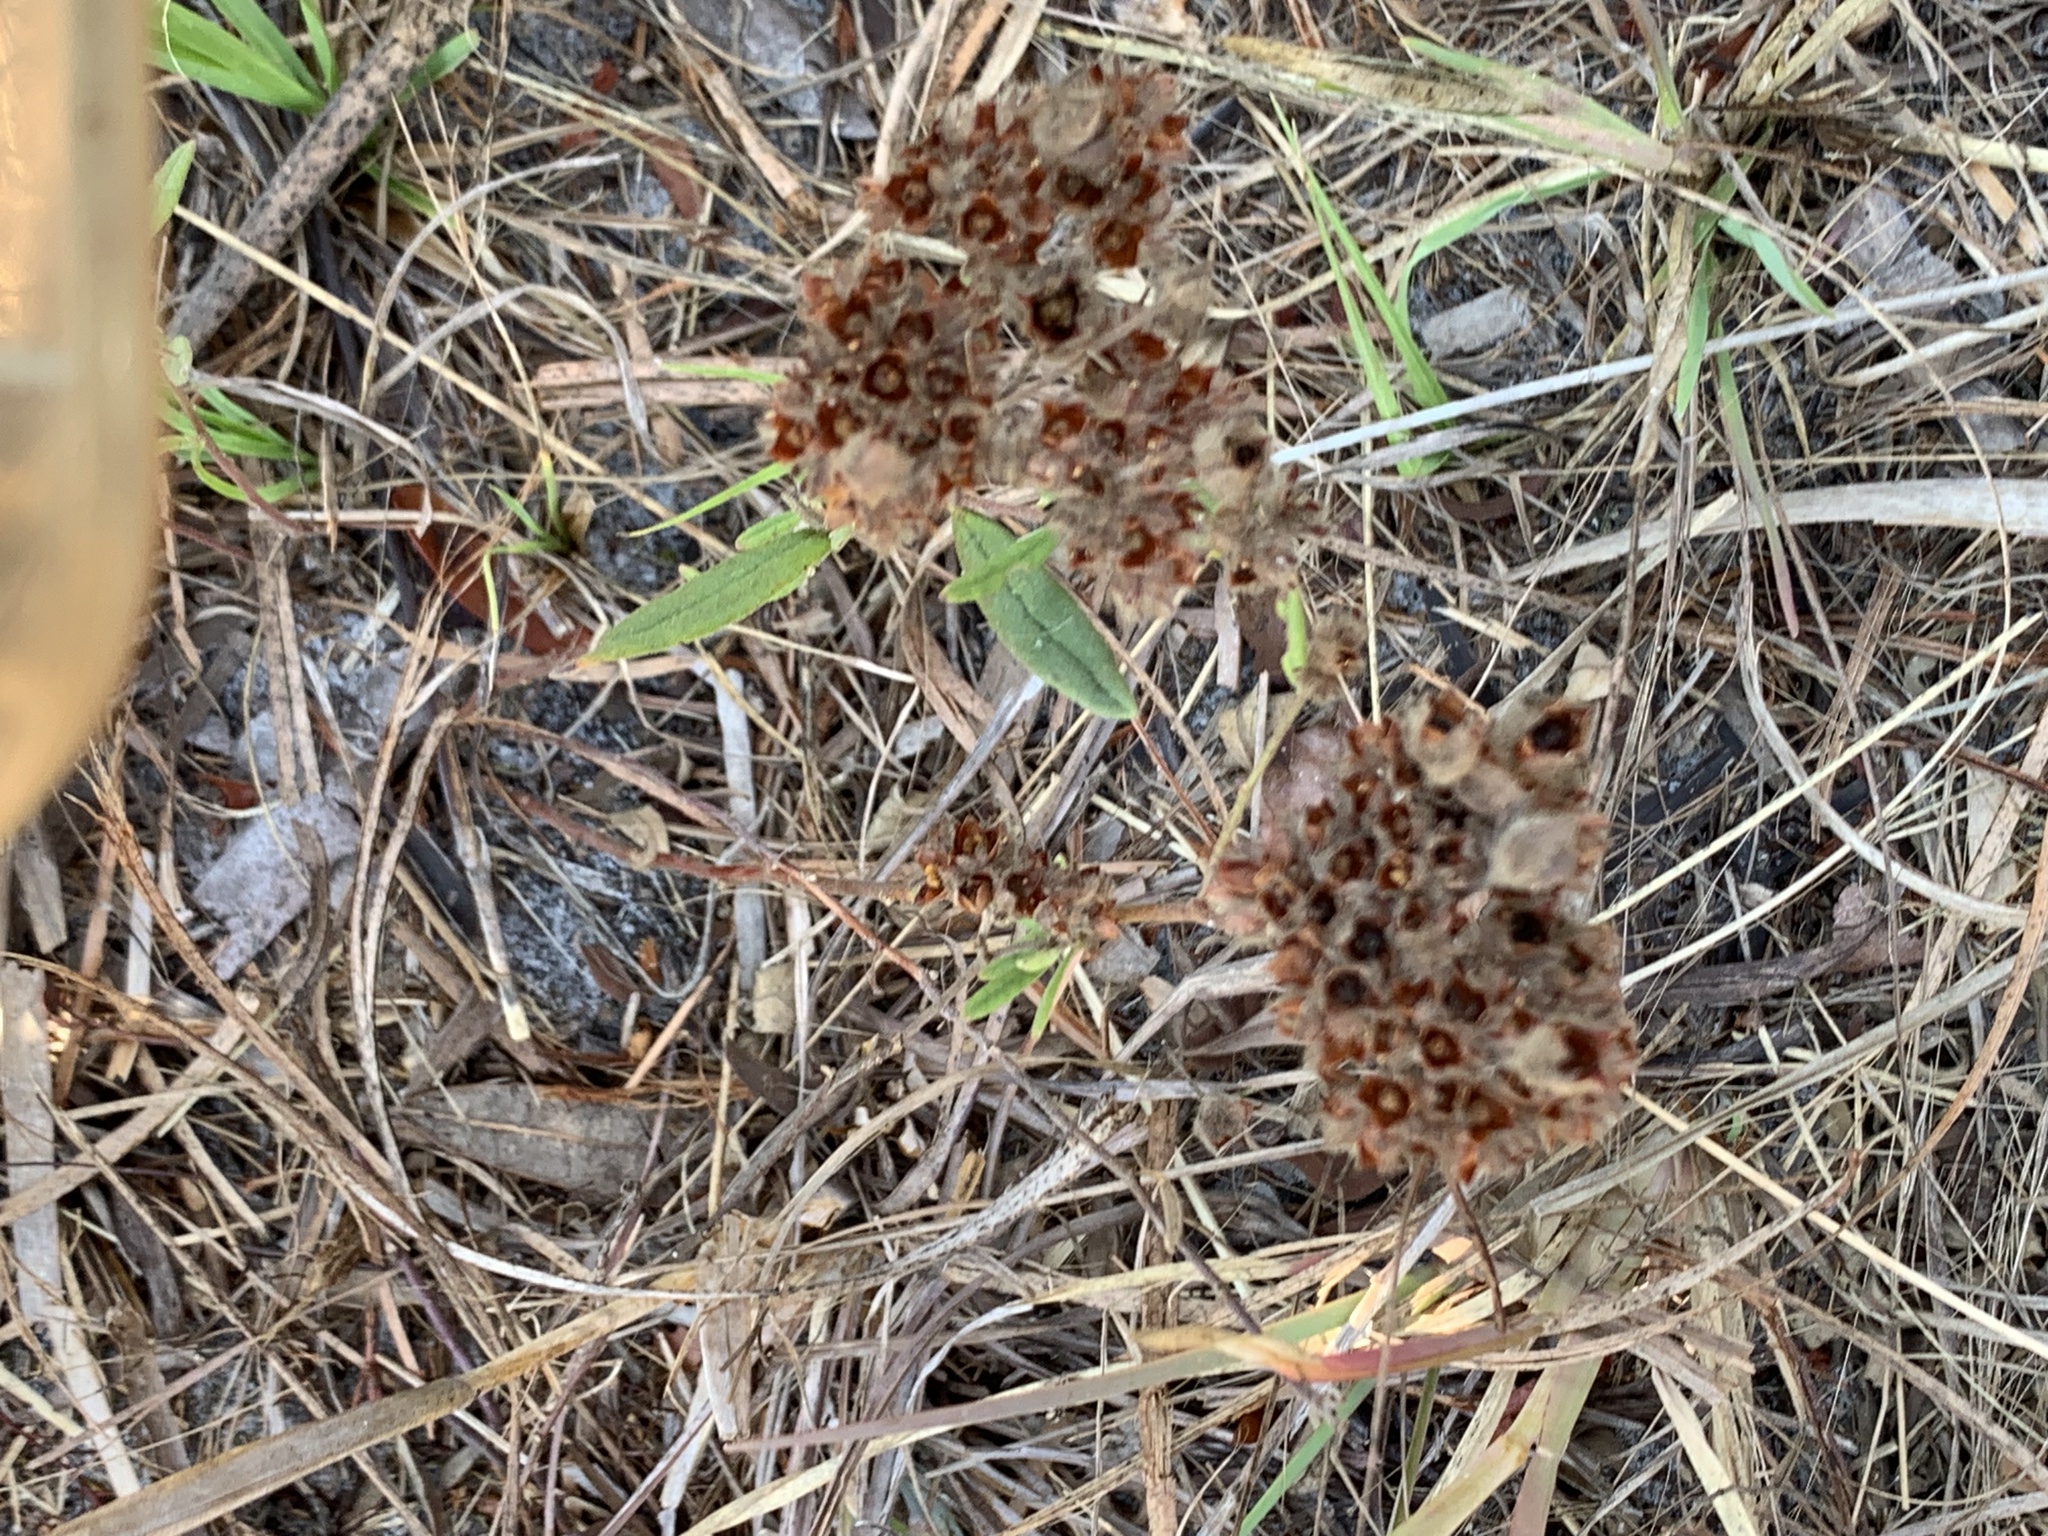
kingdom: Plantae
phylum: Tracheophyta
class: Magnoliopsida
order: Malvales
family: Cistaceae
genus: Crocanthemum
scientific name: Crocanthemum corymbosum
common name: Pinebarren sun-rose
